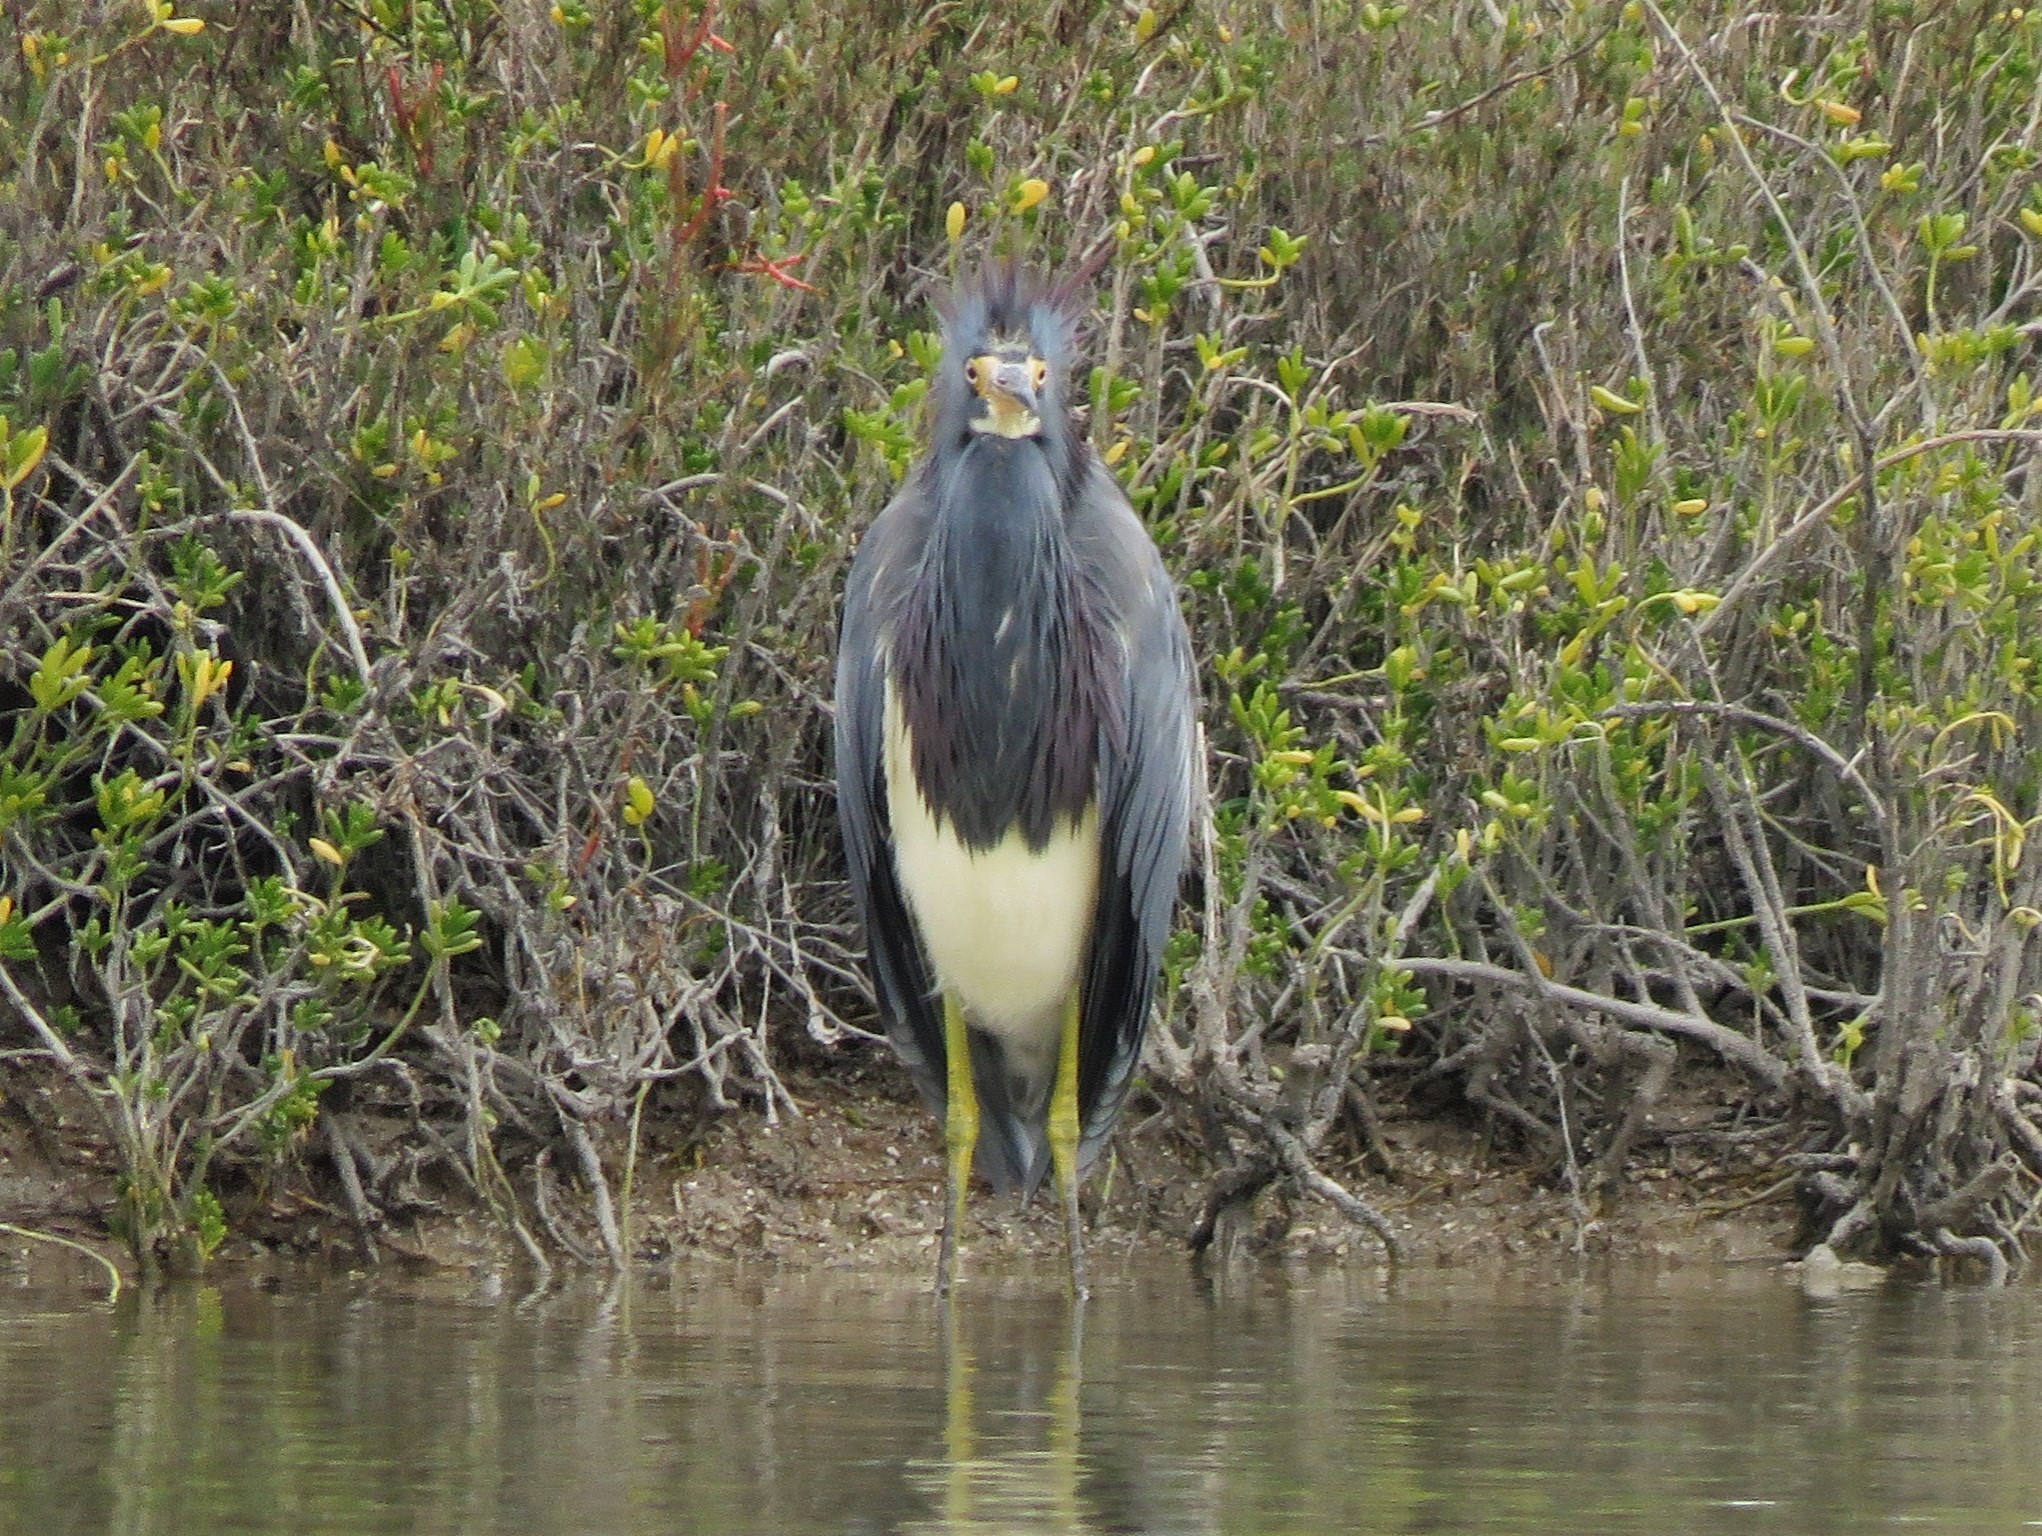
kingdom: Animalia
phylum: Chordata
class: Aves
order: Pelecaniformes
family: Ardeidae
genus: Egretta
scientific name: Egretta tricolor
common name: Tricolored heron
